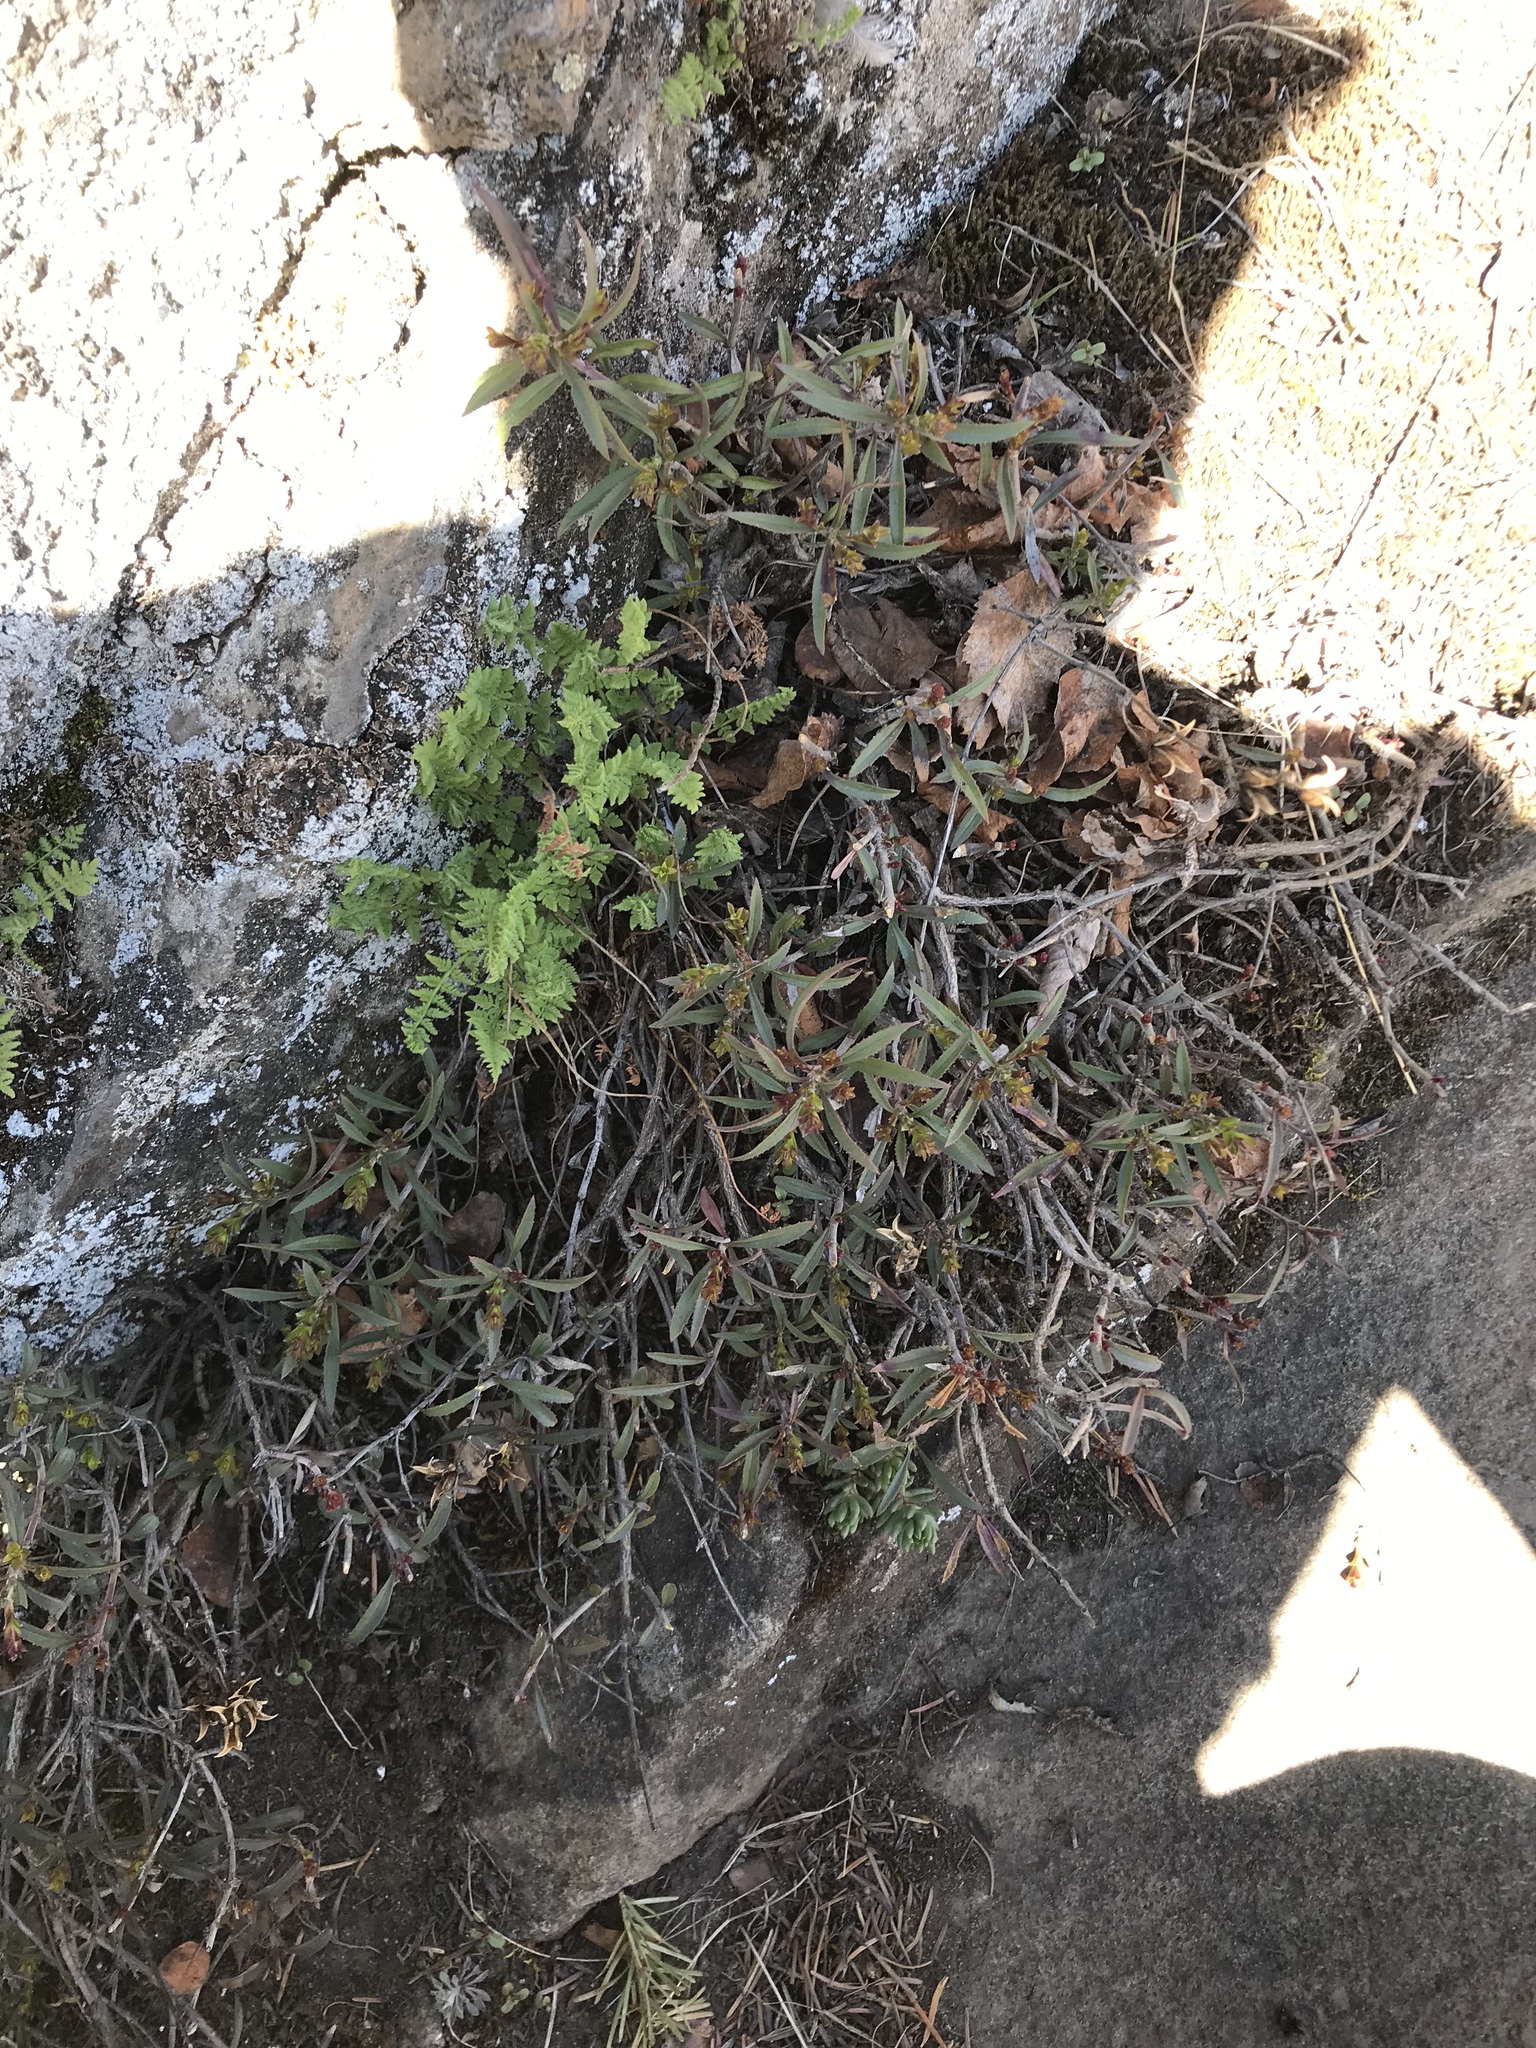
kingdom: Plantae
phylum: Tracheophyta
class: Magnoliopsida
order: Lamiales
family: Plantaginaceae
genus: Penstemon
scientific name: Penstemon fruticosus
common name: Bush penstemon
